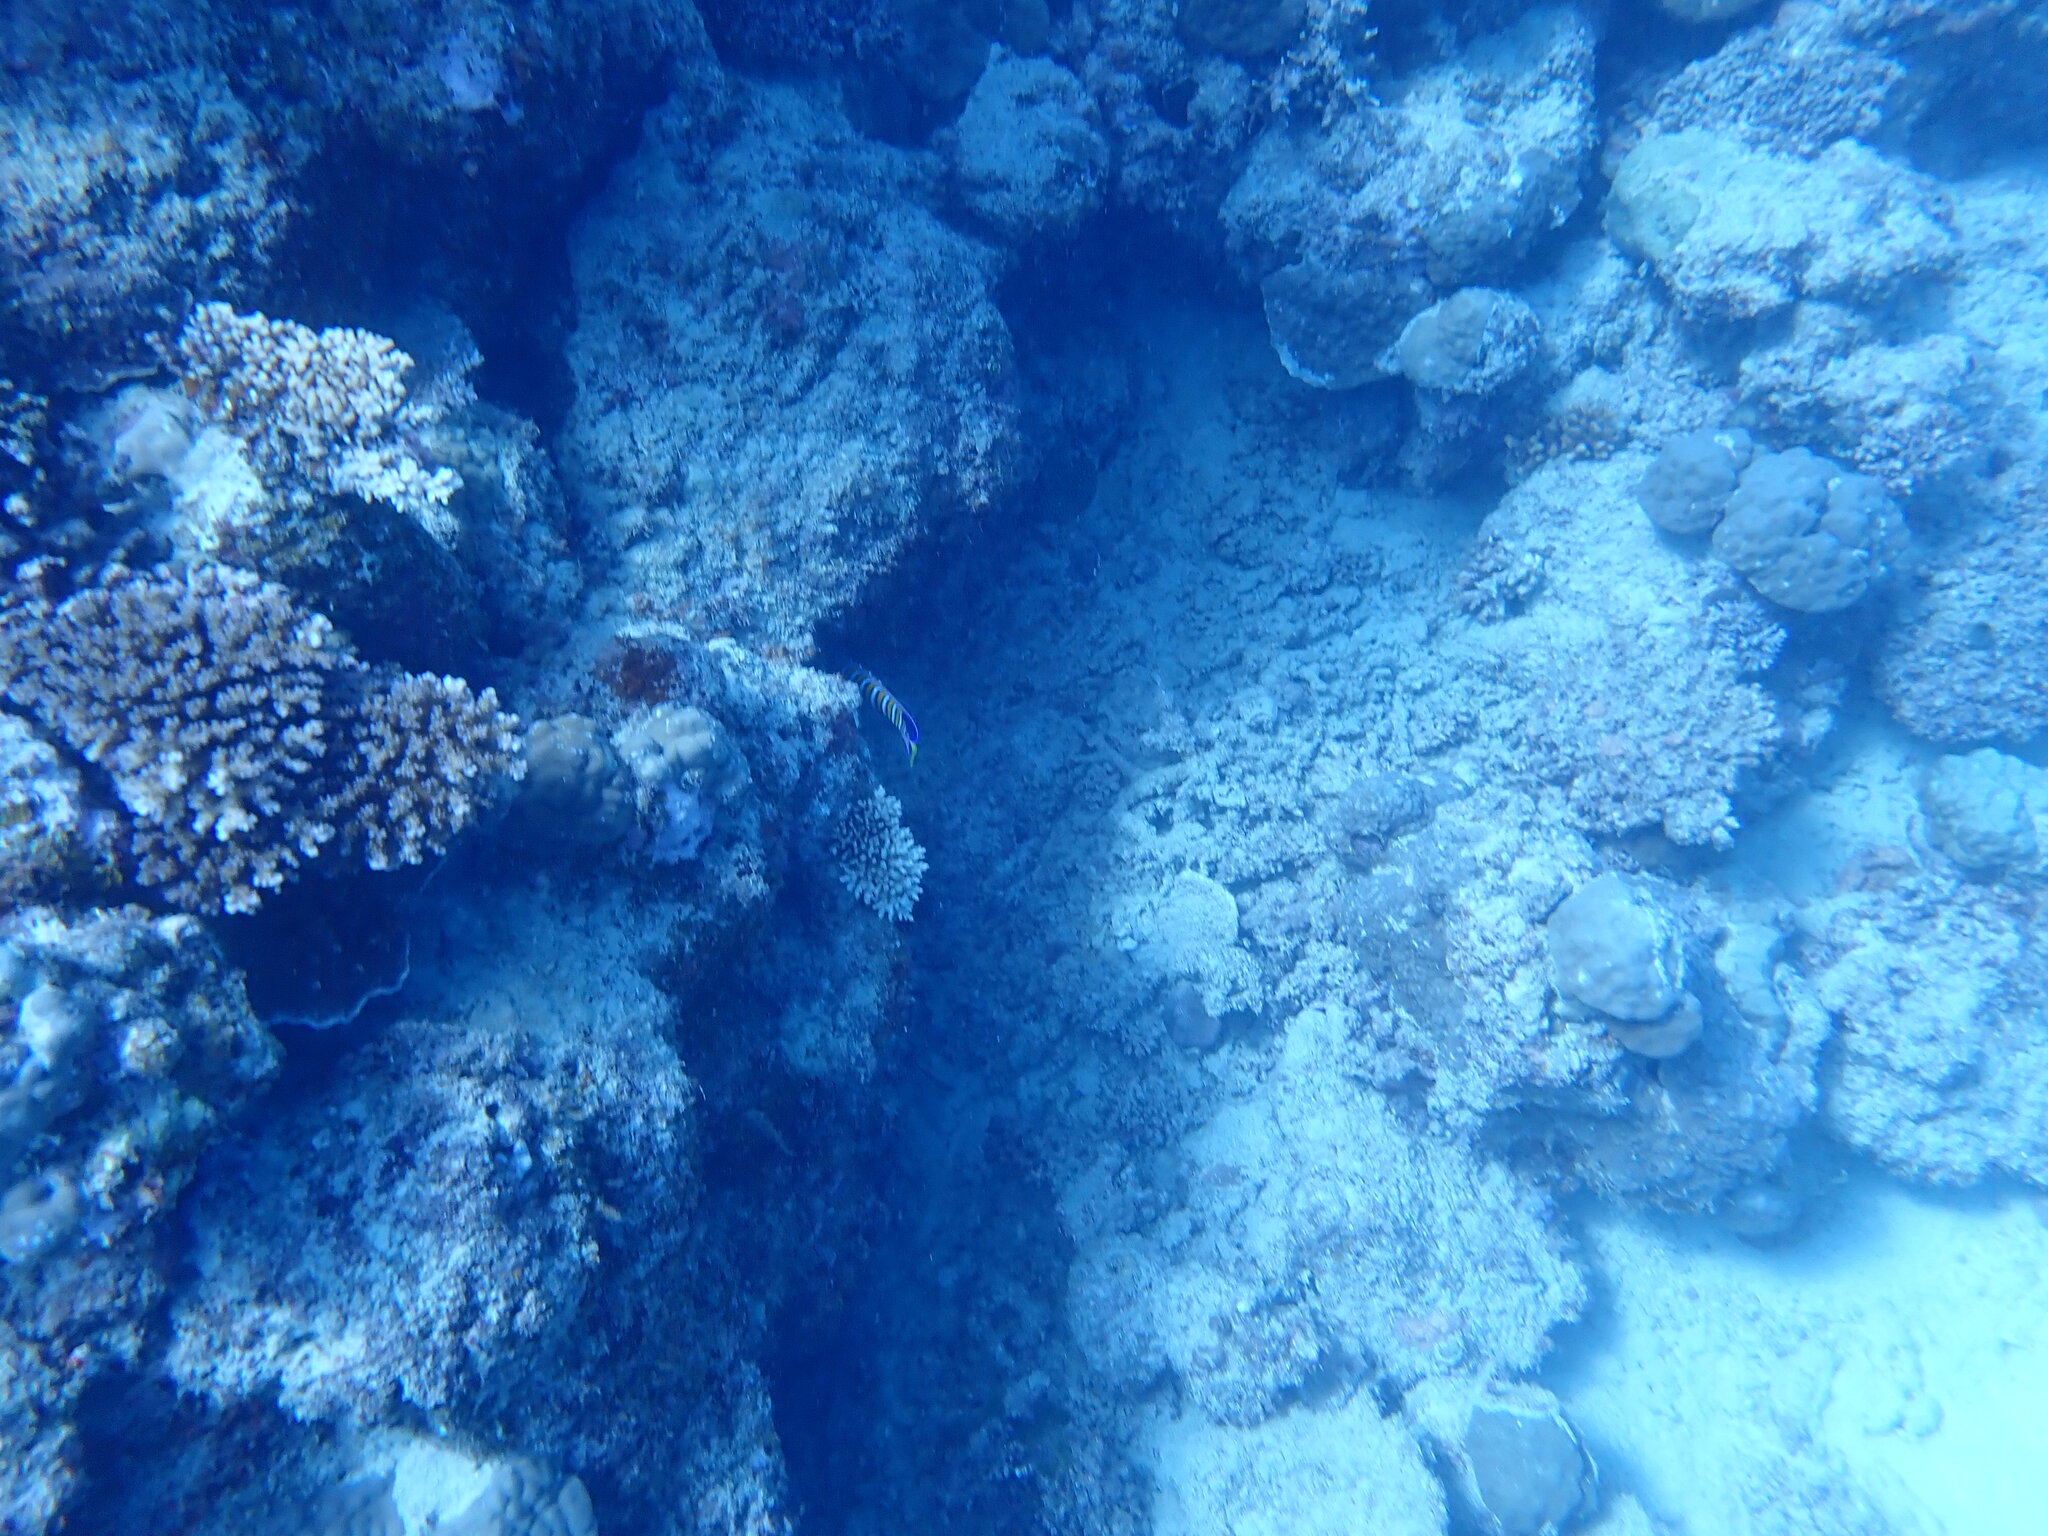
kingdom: Animalia
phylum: Chordata
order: Perciformes
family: Pomacanthidae
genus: Pygoplites
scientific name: Pygoplites diacanthus
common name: Regal angelfish
